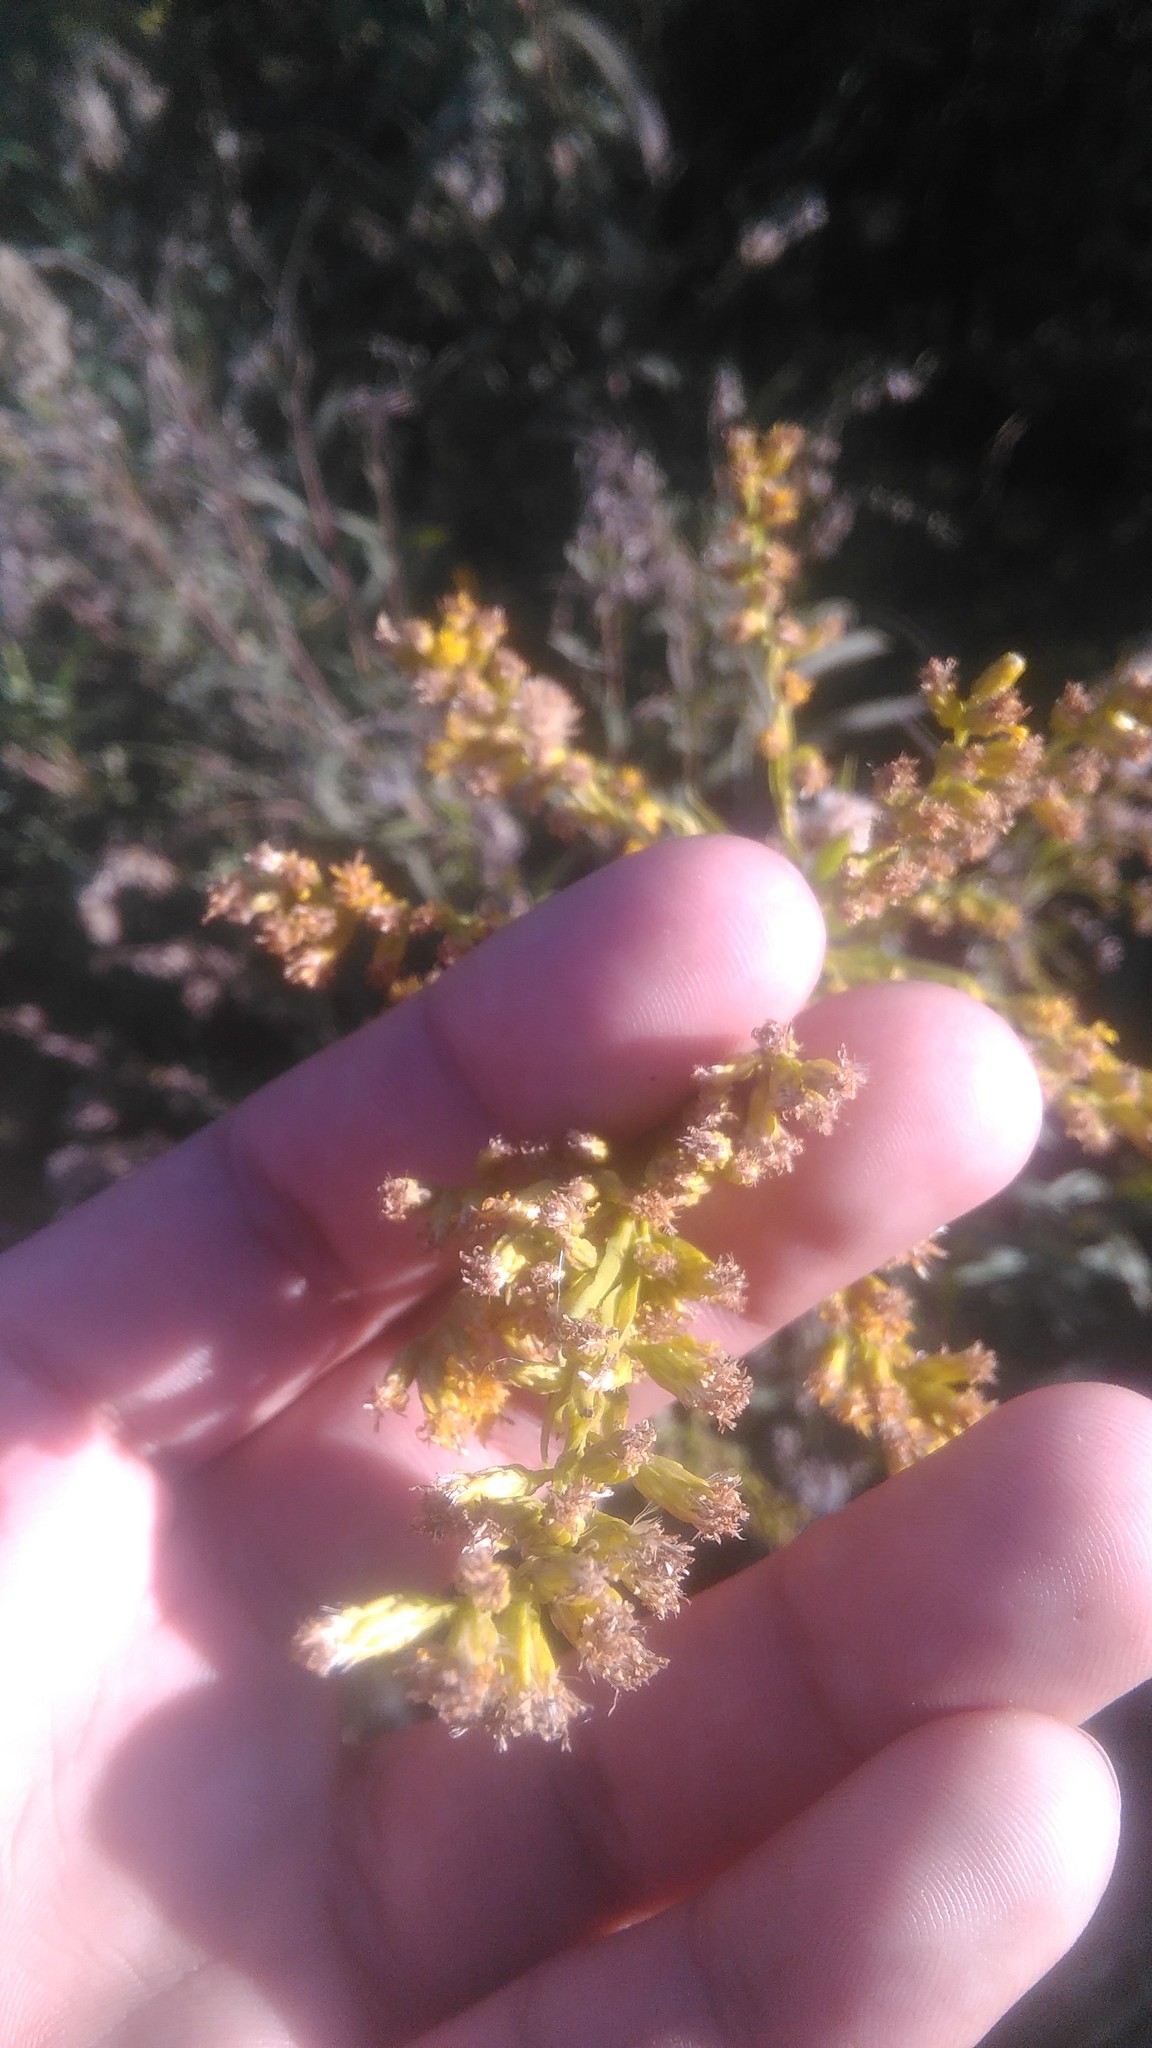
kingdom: Plantae
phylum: Tracheophyta
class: Magnoliopsida
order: Asterales
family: Asteraceae
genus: Solidago
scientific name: Solidago chilensis
